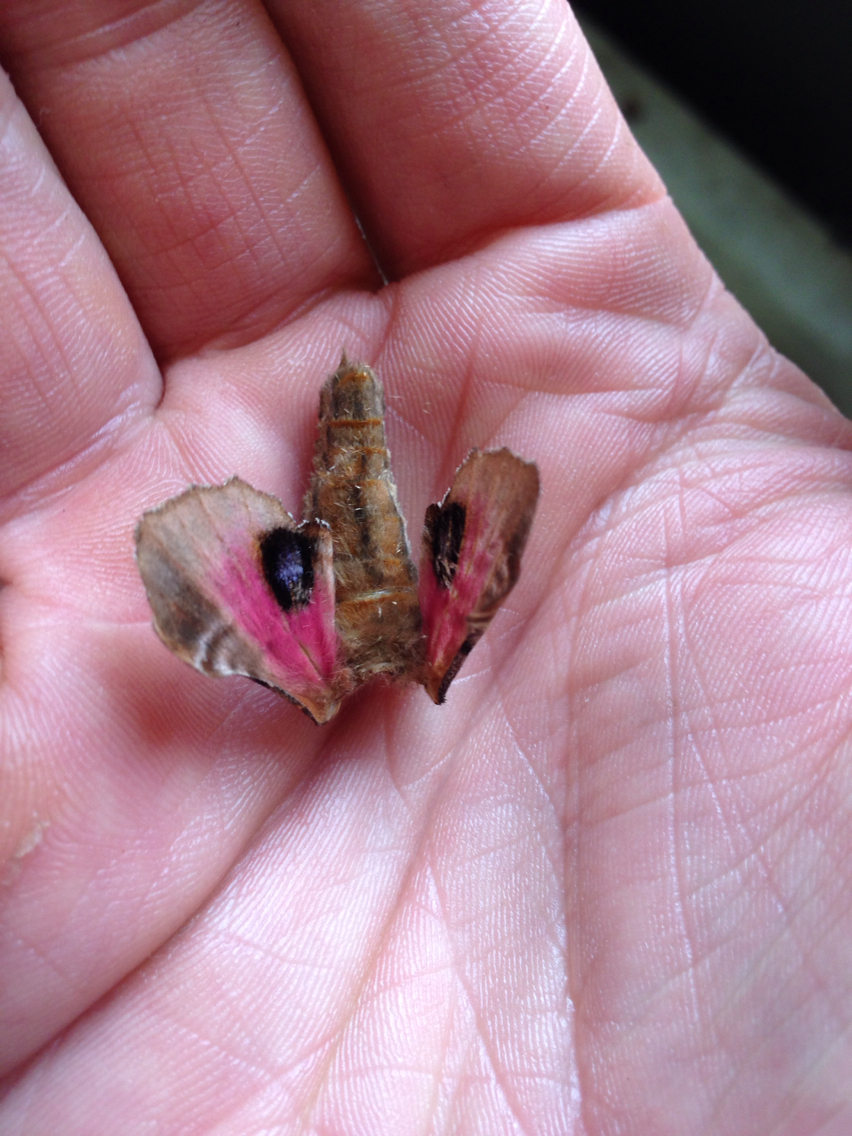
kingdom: Animalia
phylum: Arthropoda
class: Insecta
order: Lepidoptera
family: Sphingidae
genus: Paonias
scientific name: Paonias excaecata
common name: Blind-eyed sphinx
